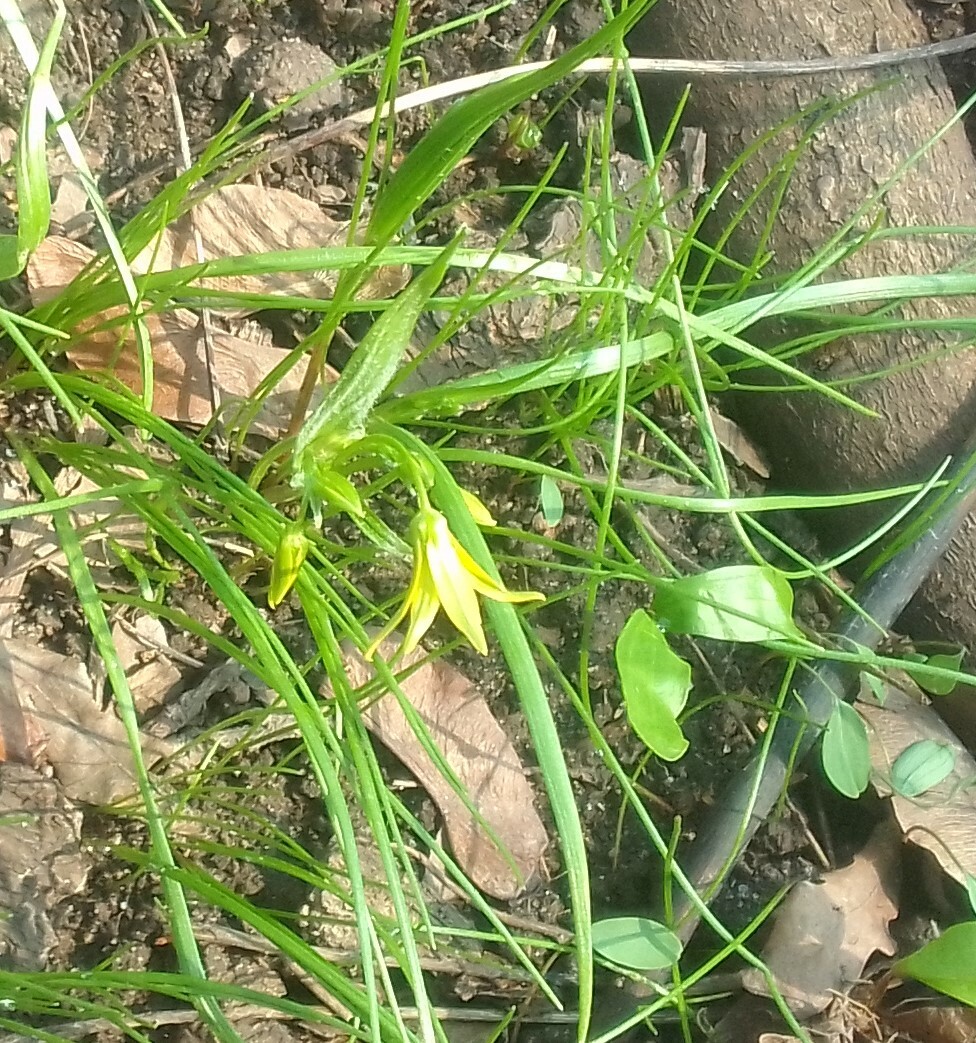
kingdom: Plantae
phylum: Tracheophyta
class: Liliopsida
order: Liliales
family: Liliaceae
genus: Gagea
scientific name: Gagea minima
